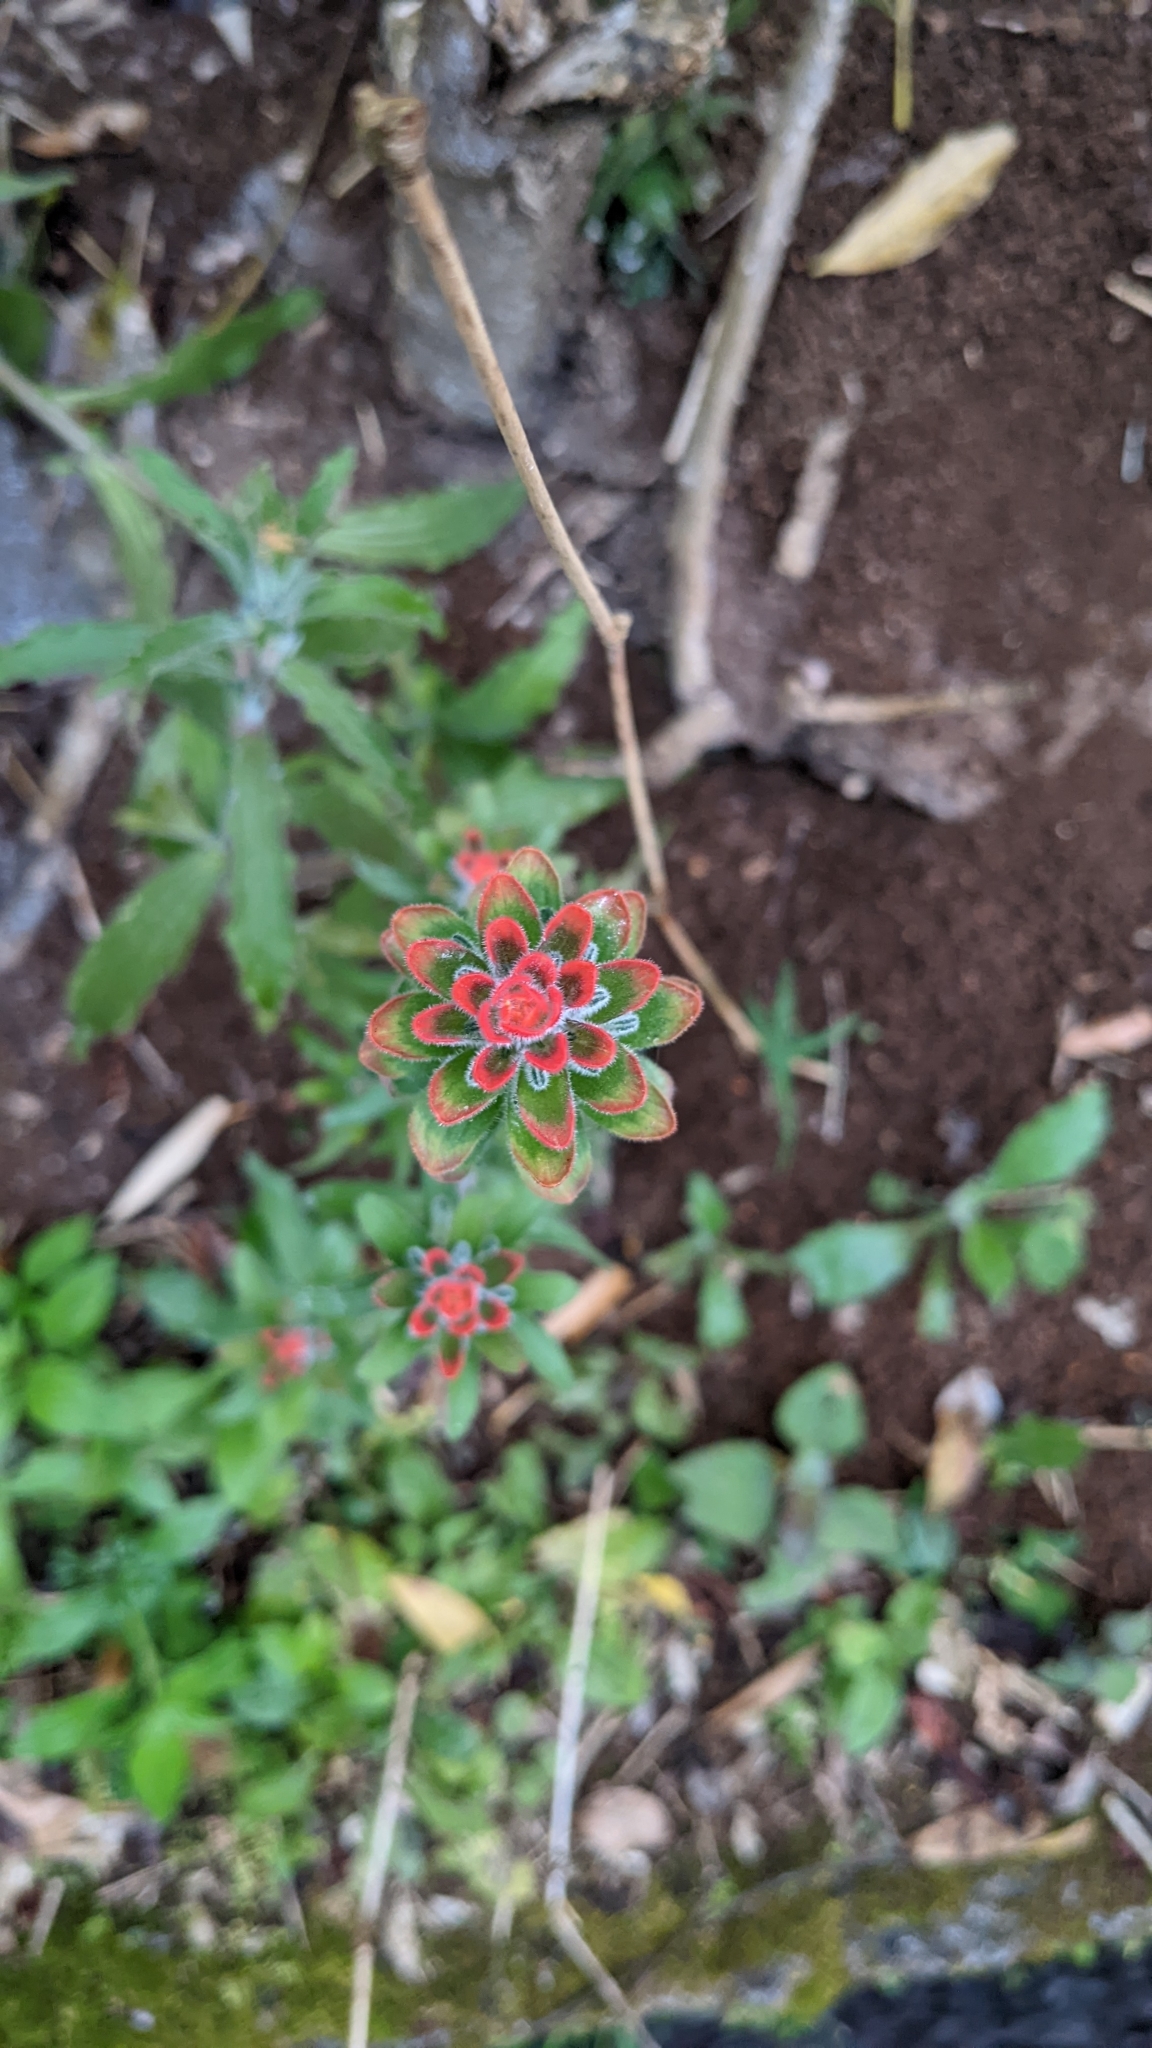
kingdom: Plantae
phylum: Tracheophyta
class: Magnoliopsida
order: Lamiales
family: Orobanchaceae
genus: Castilleja
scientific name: Castilleja arvensis
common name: Indian paintbrush
